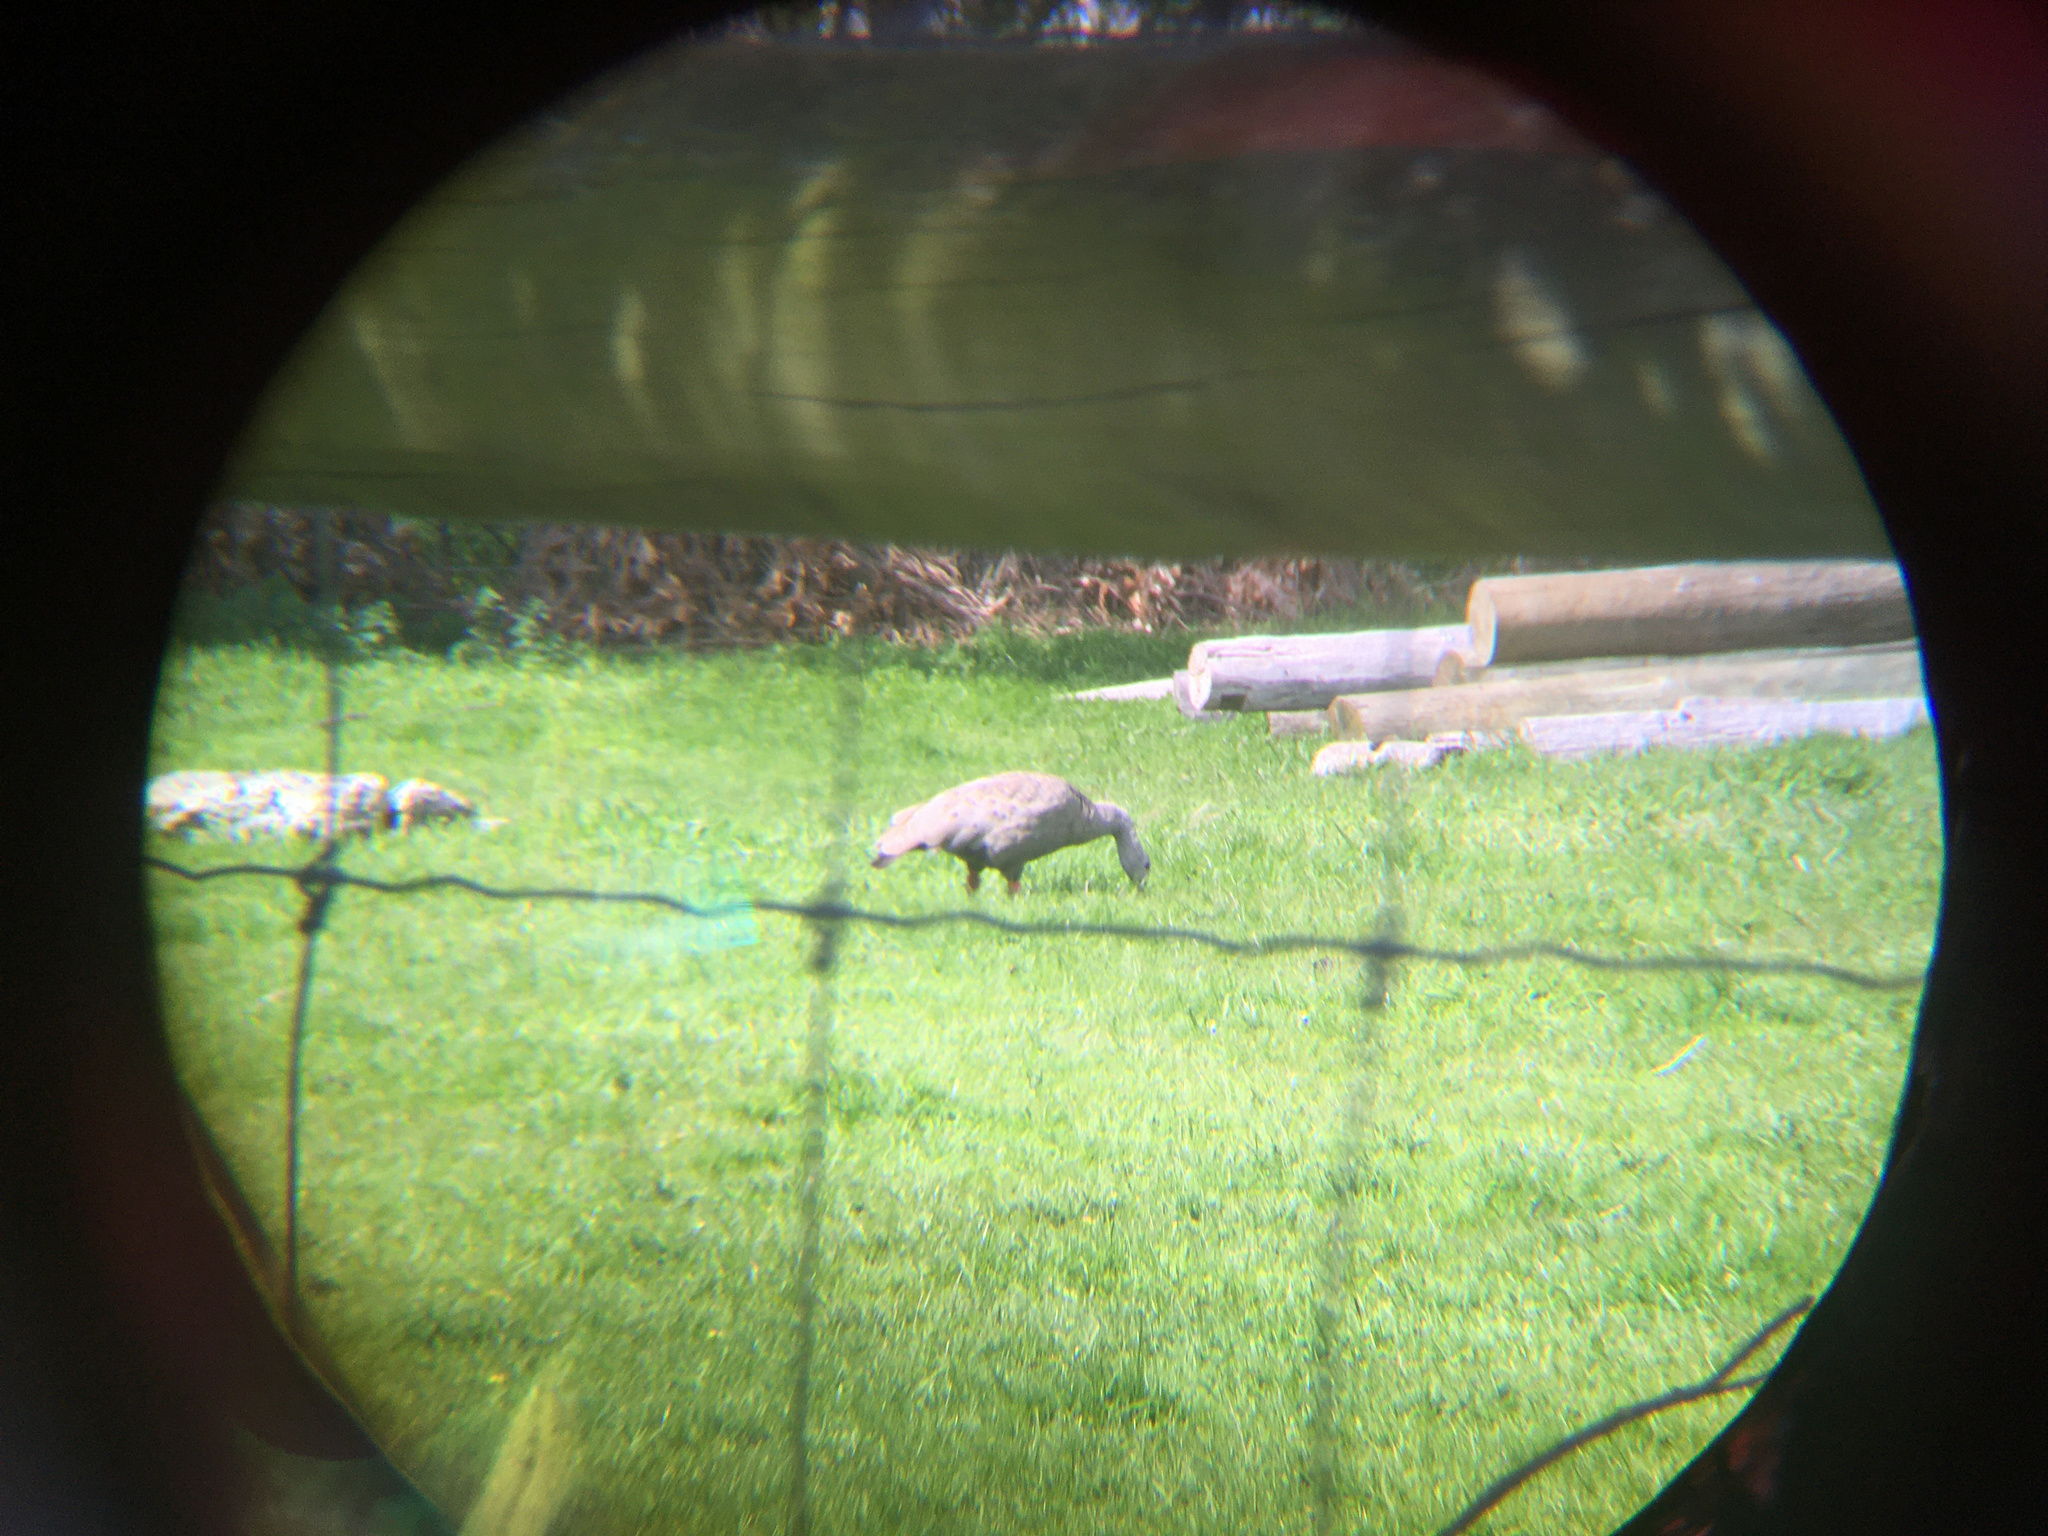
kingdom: Animalia
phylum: Chordata
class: Aves
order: Anseriformes
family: Anatidae
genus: Cereopsis
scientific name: Cereopsis novaehollandiae
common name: Cape barren goose
